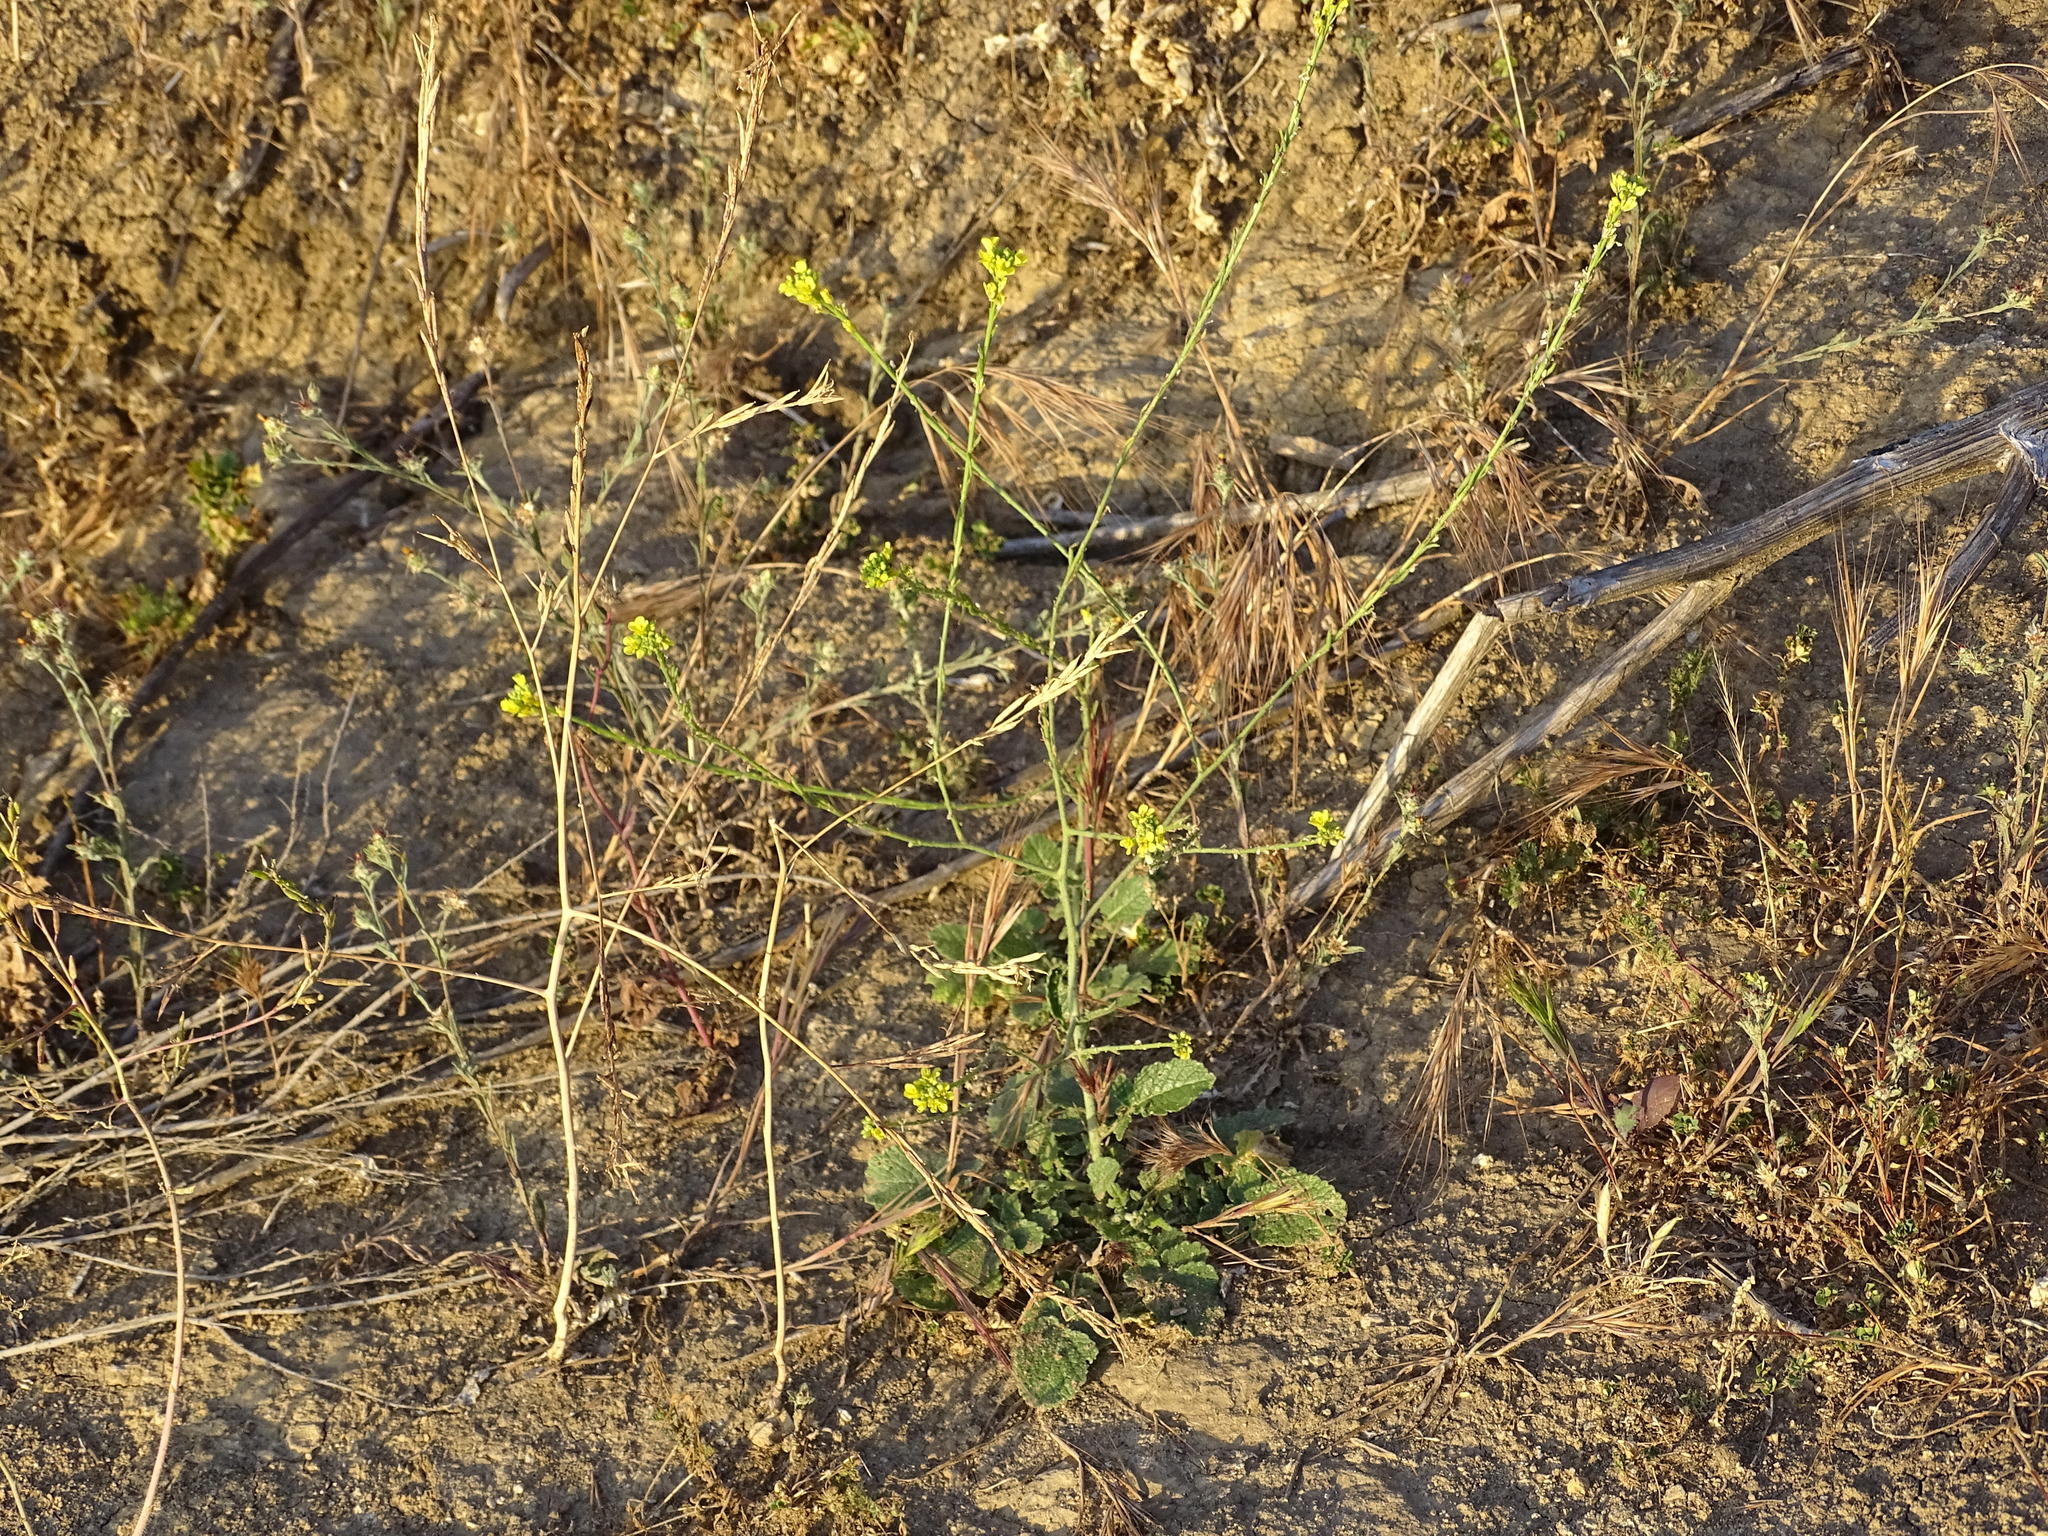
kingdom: Plantae
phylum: Tracheophyta
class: Magnoliopsida
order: Brassicales
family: Brassicaceae
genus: Hirschfeldia
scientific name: Hirschfeldia incana
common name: Hoary mustard
